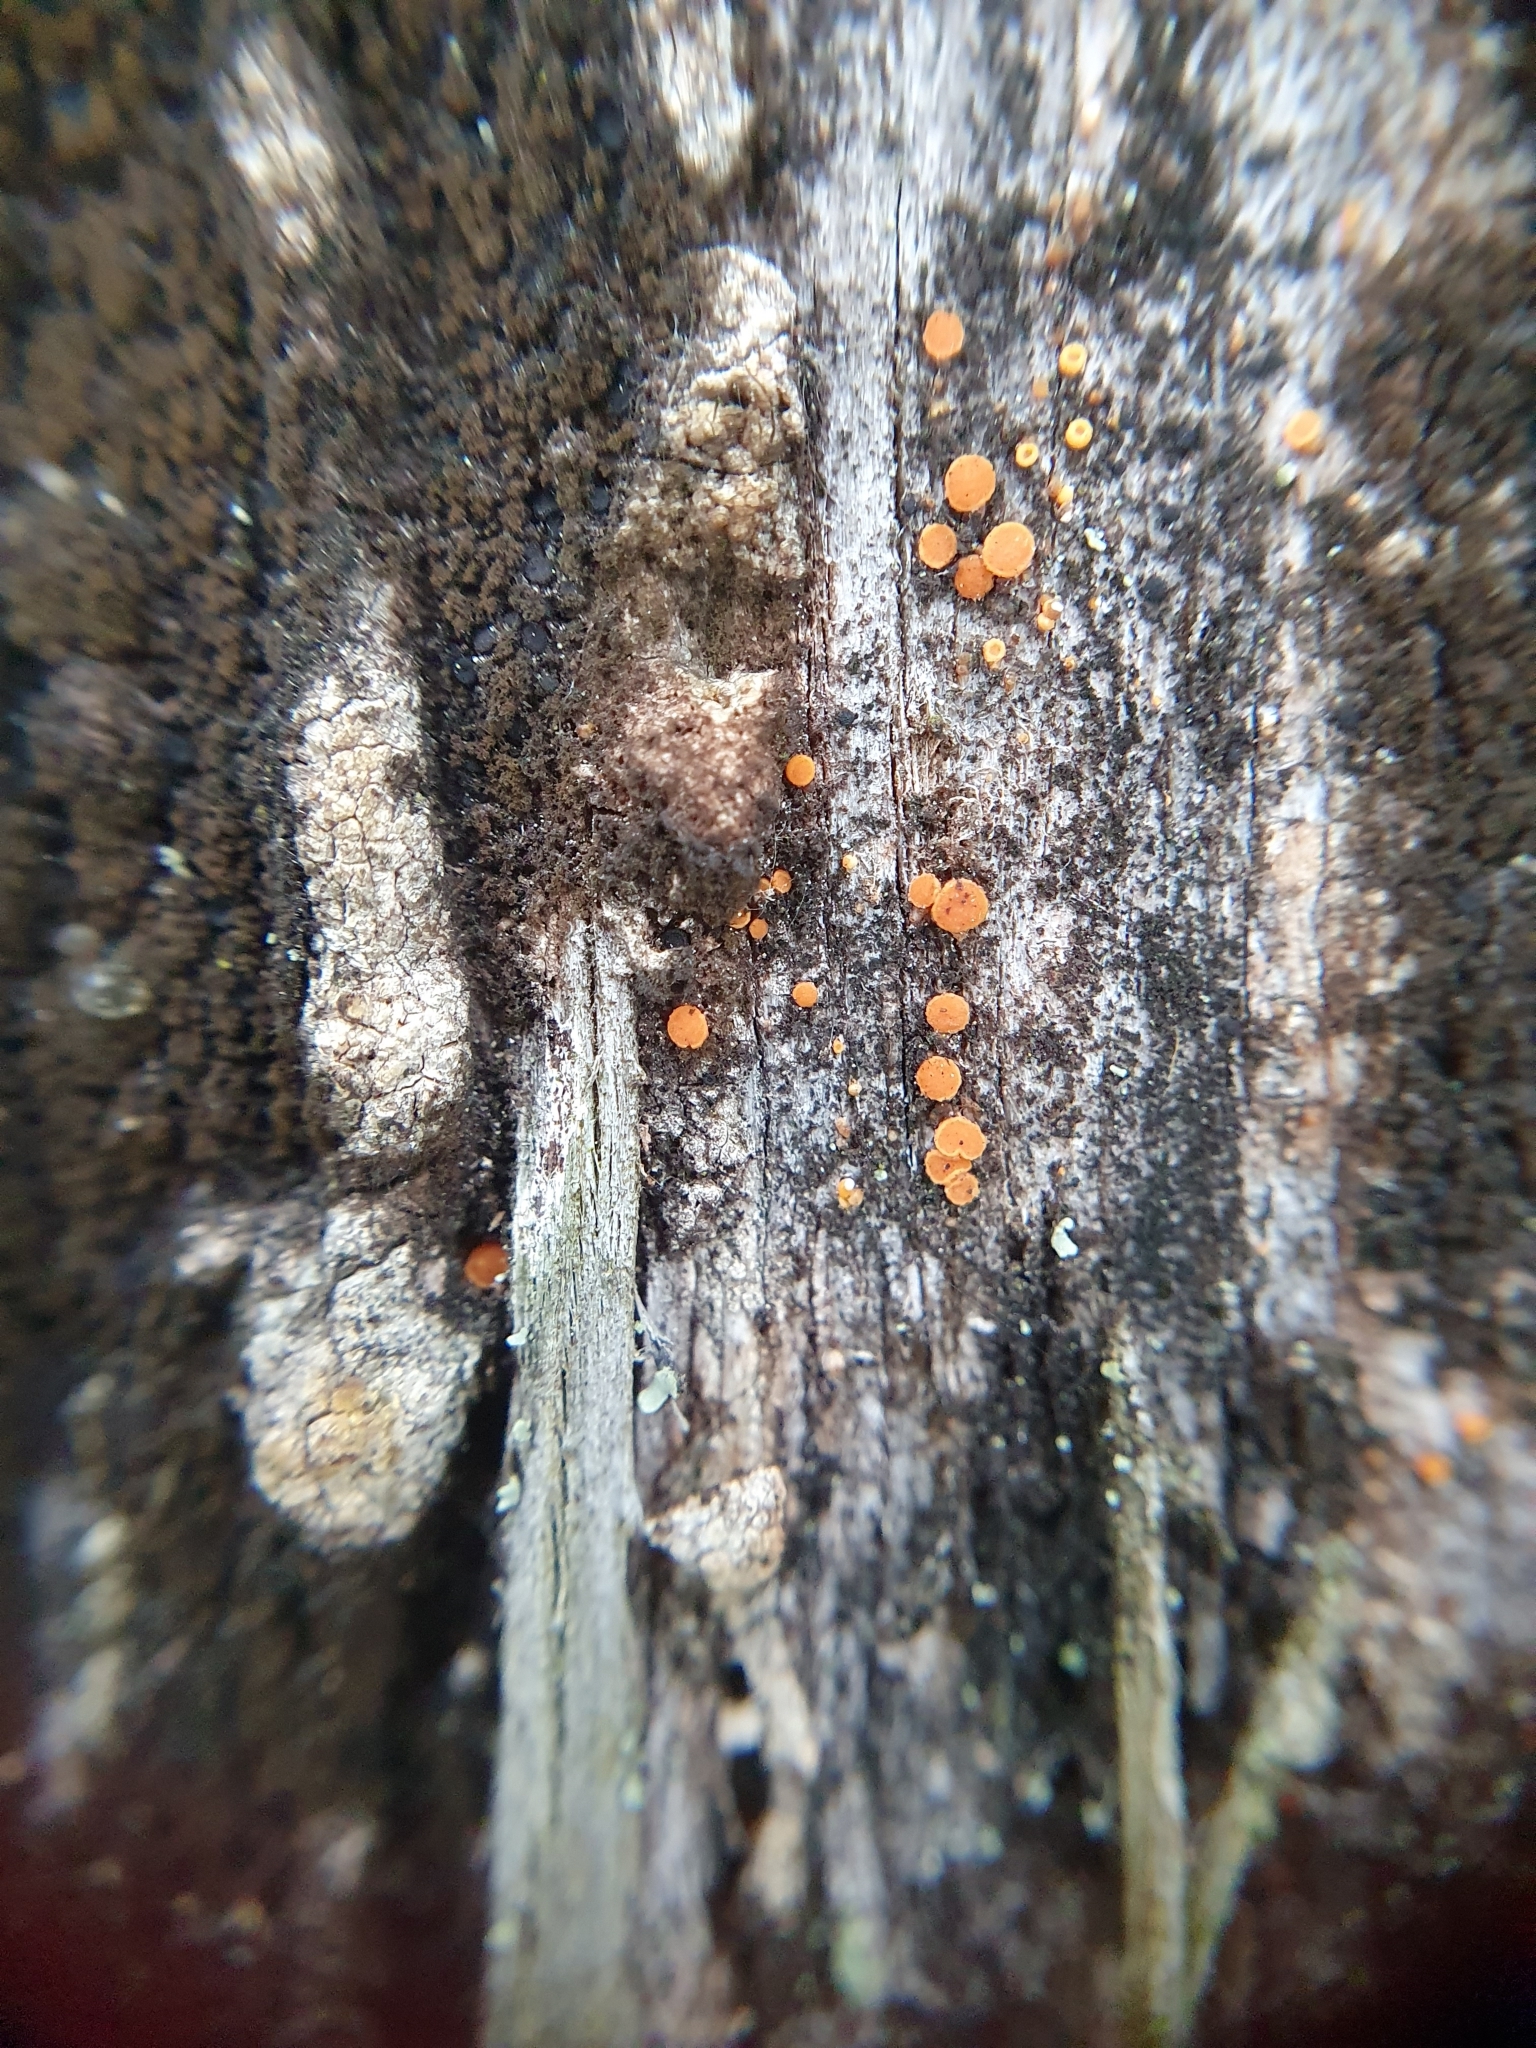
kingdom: Fungi
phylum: Ascomycota
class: Sareomycetes
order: Sareales
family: Sareaceae
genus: Sarea
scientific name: Sarea resinae
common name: Sarea lichen
